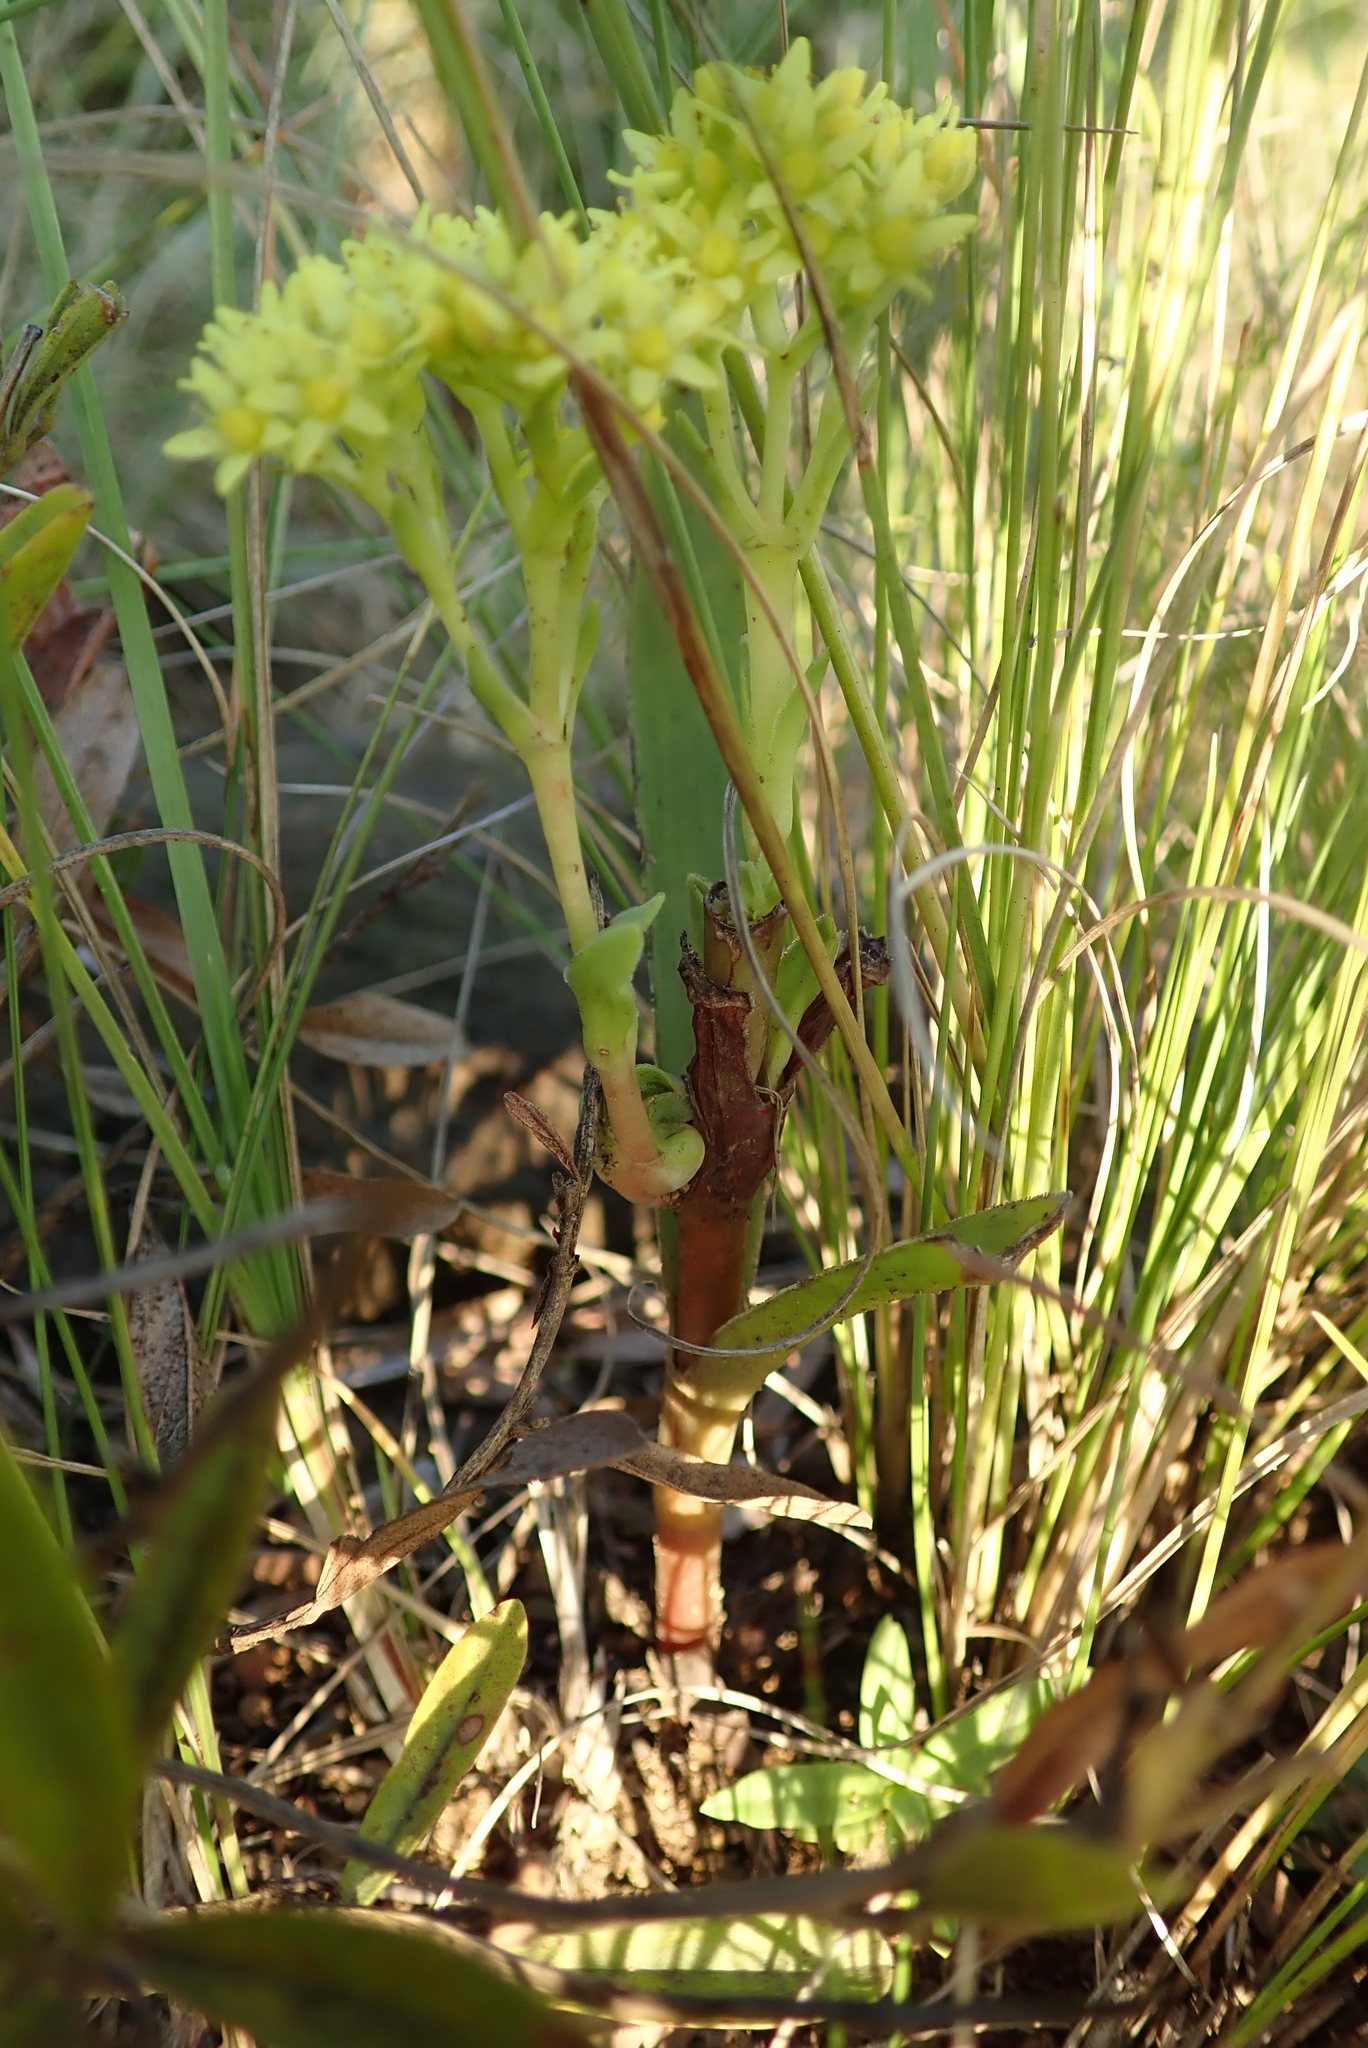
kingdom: Plantae
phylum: Tracheophyta
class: Magnoliopsida
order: Saxifragales
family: Crassulaceae
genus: Crassula
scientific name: Crassula vaginata
